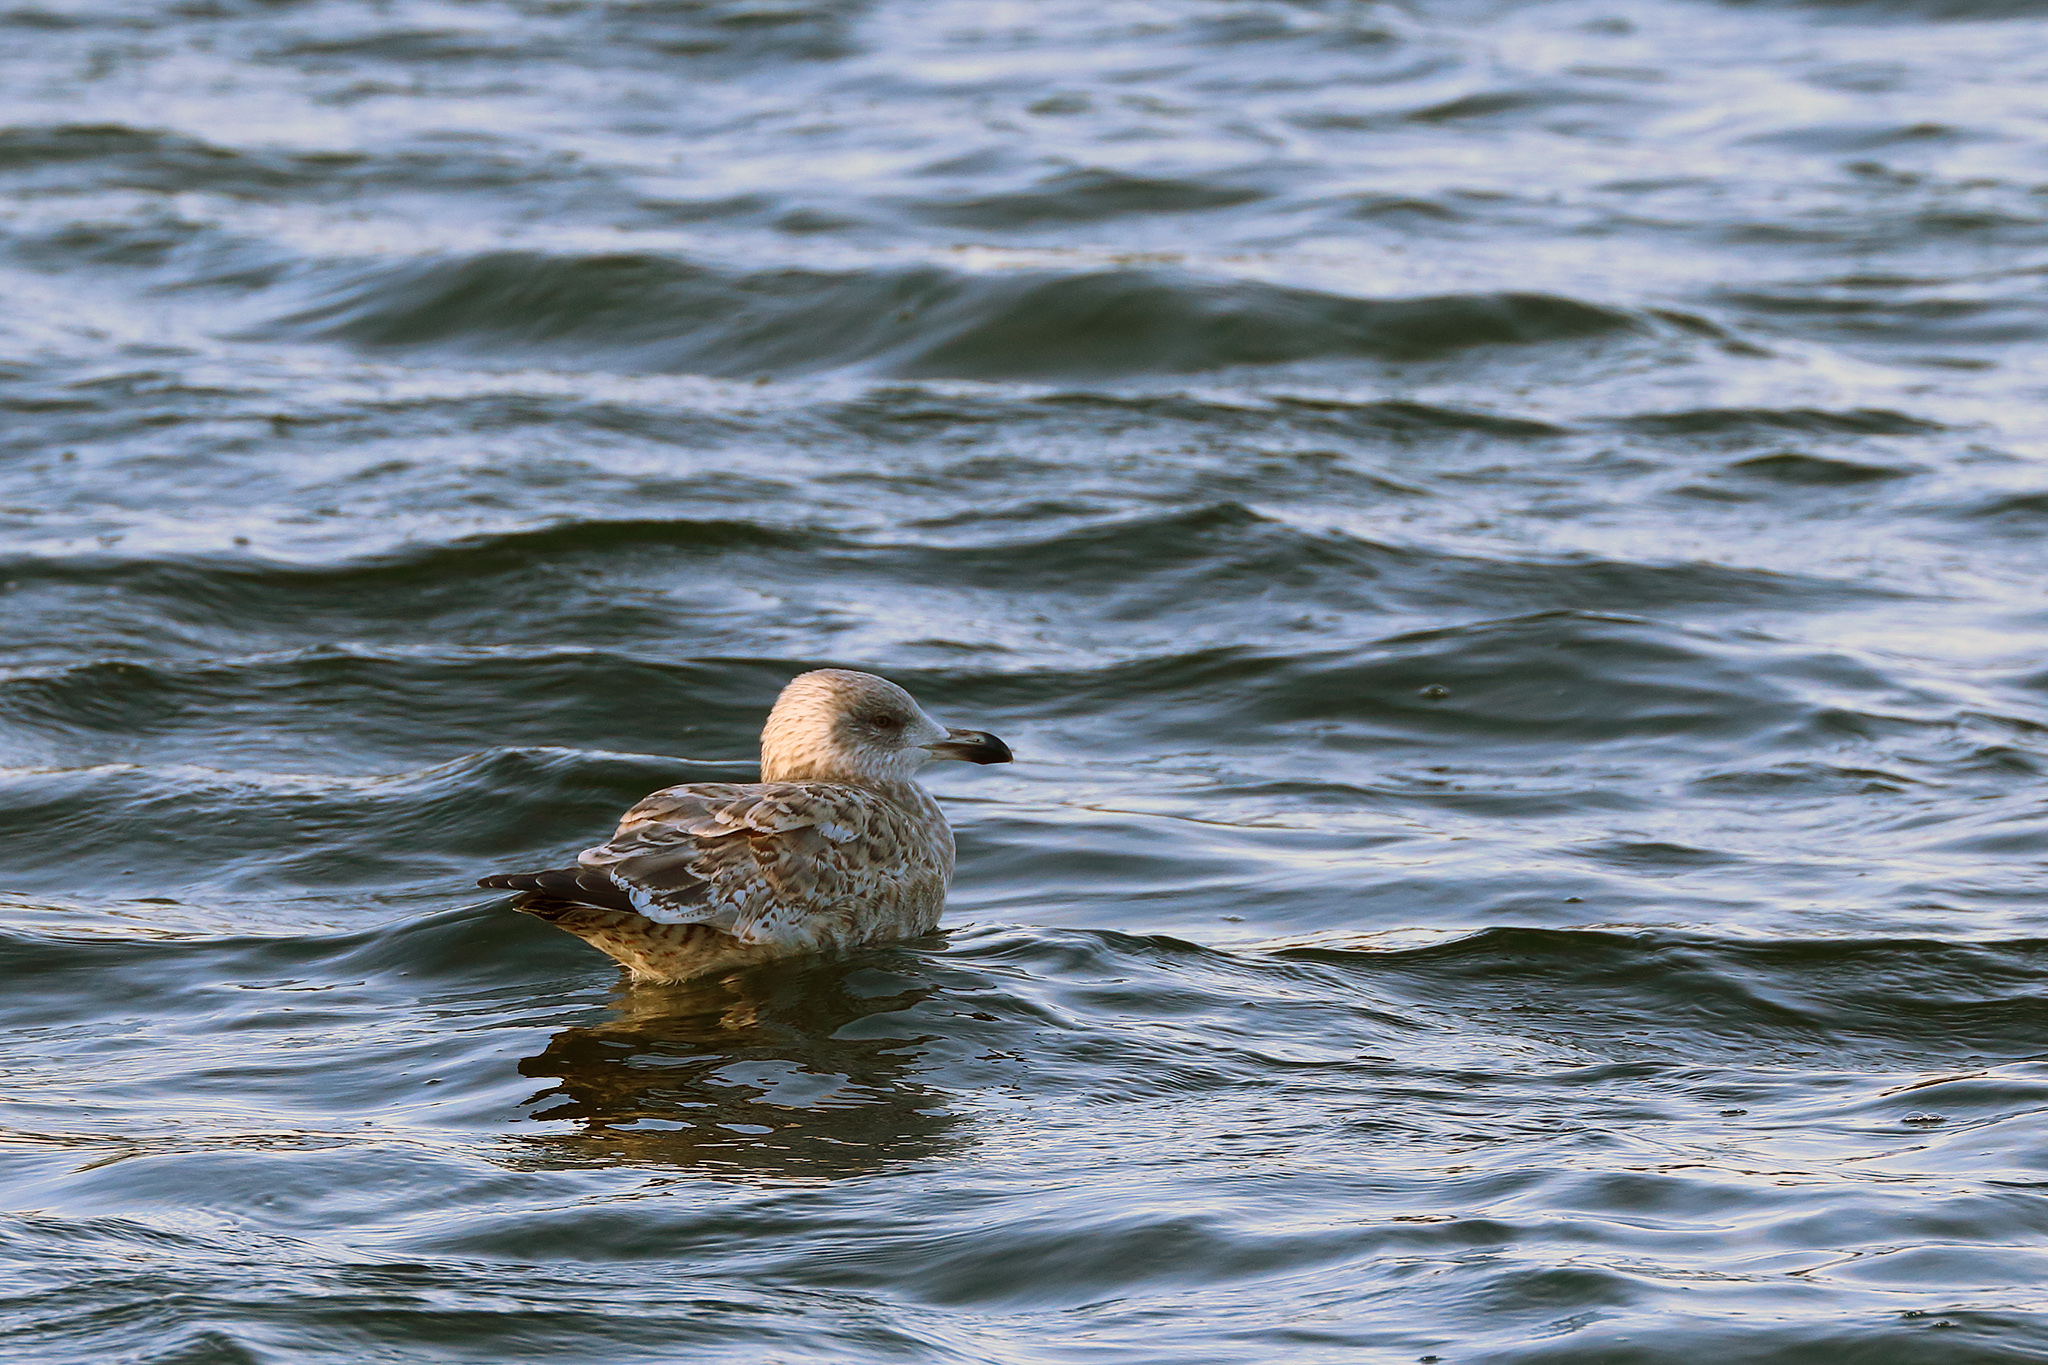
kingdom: Animalia
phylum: Chordata
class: Aves
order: Charadriiformes
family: Laridae
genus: Larus
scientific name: Larus argentatus
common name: Herring gull
